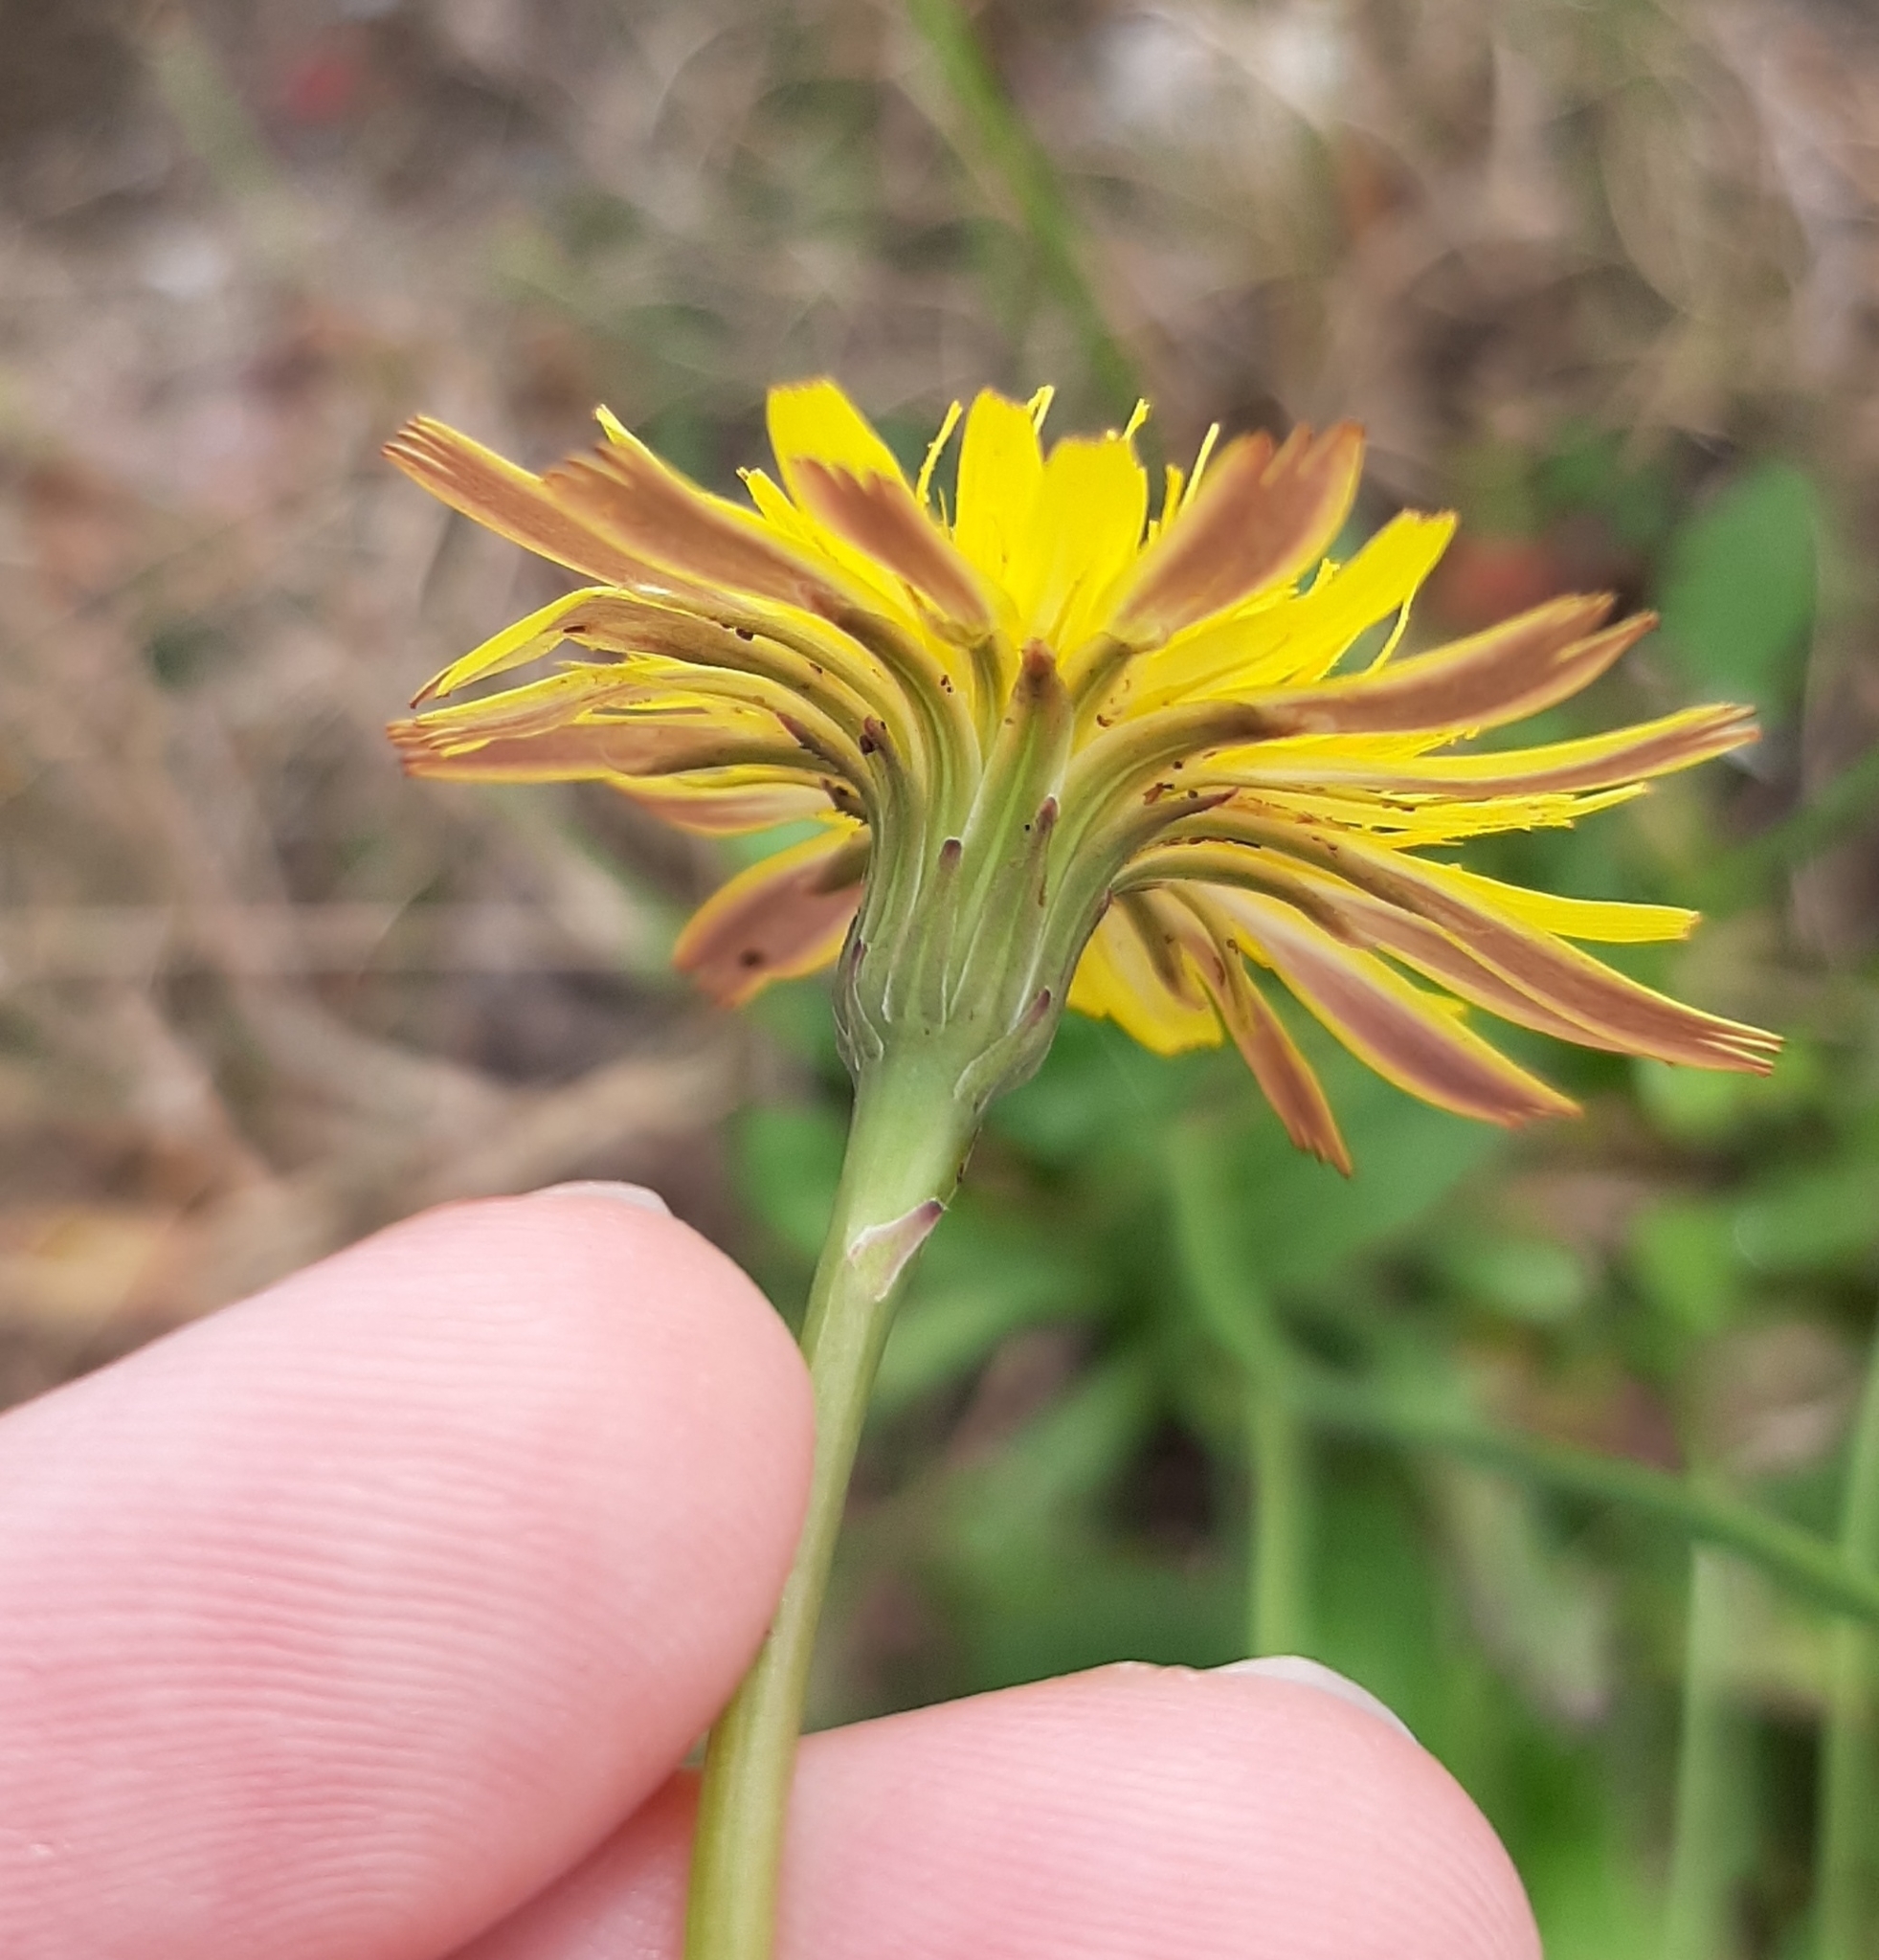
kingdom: Plantae
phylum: Tracheophyta
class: Magnoliopsida
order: Asterales
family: Asteraceae
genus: Hypochaeris
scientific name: Hypochaeris radicata
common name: Flatweed
